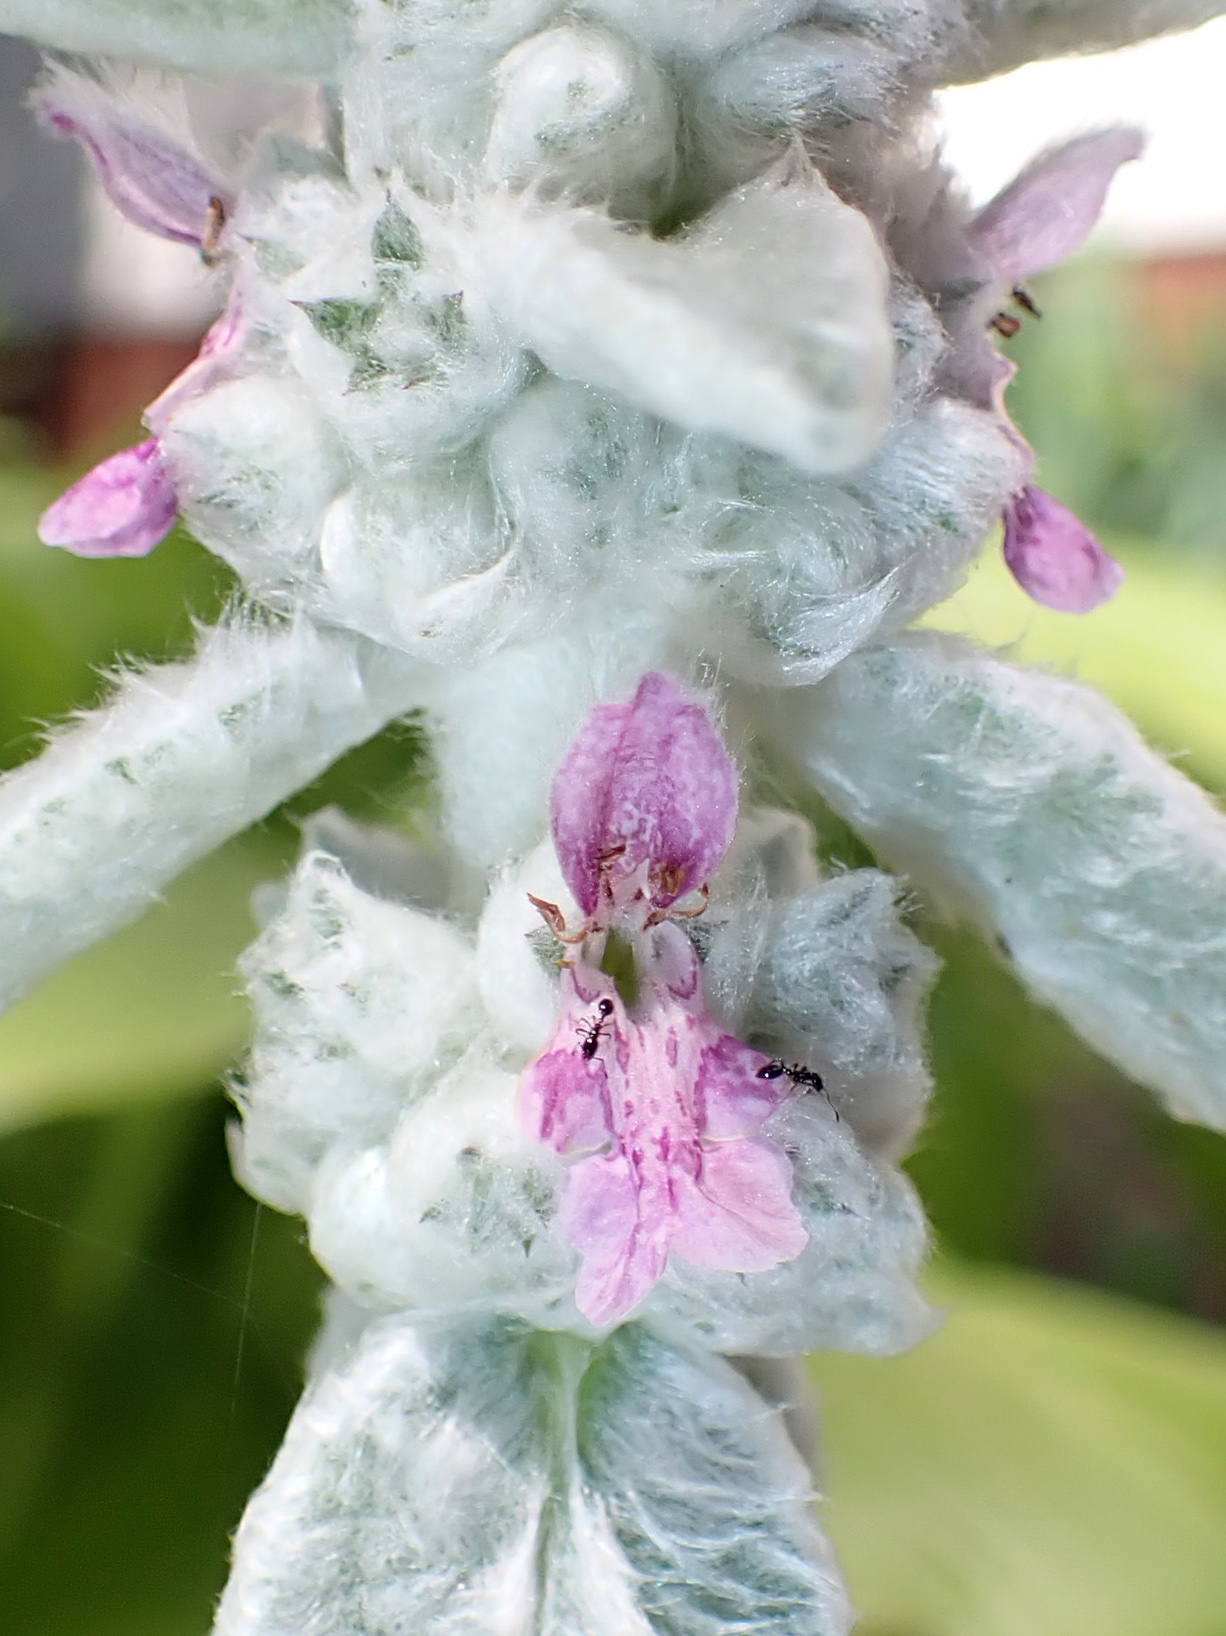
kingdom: Animalia
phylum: Arthropoda
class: Insecta
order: Hymenoptera
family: Formicidae
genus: Monomorium
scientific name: Monomorium minimum
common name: Little black ant
